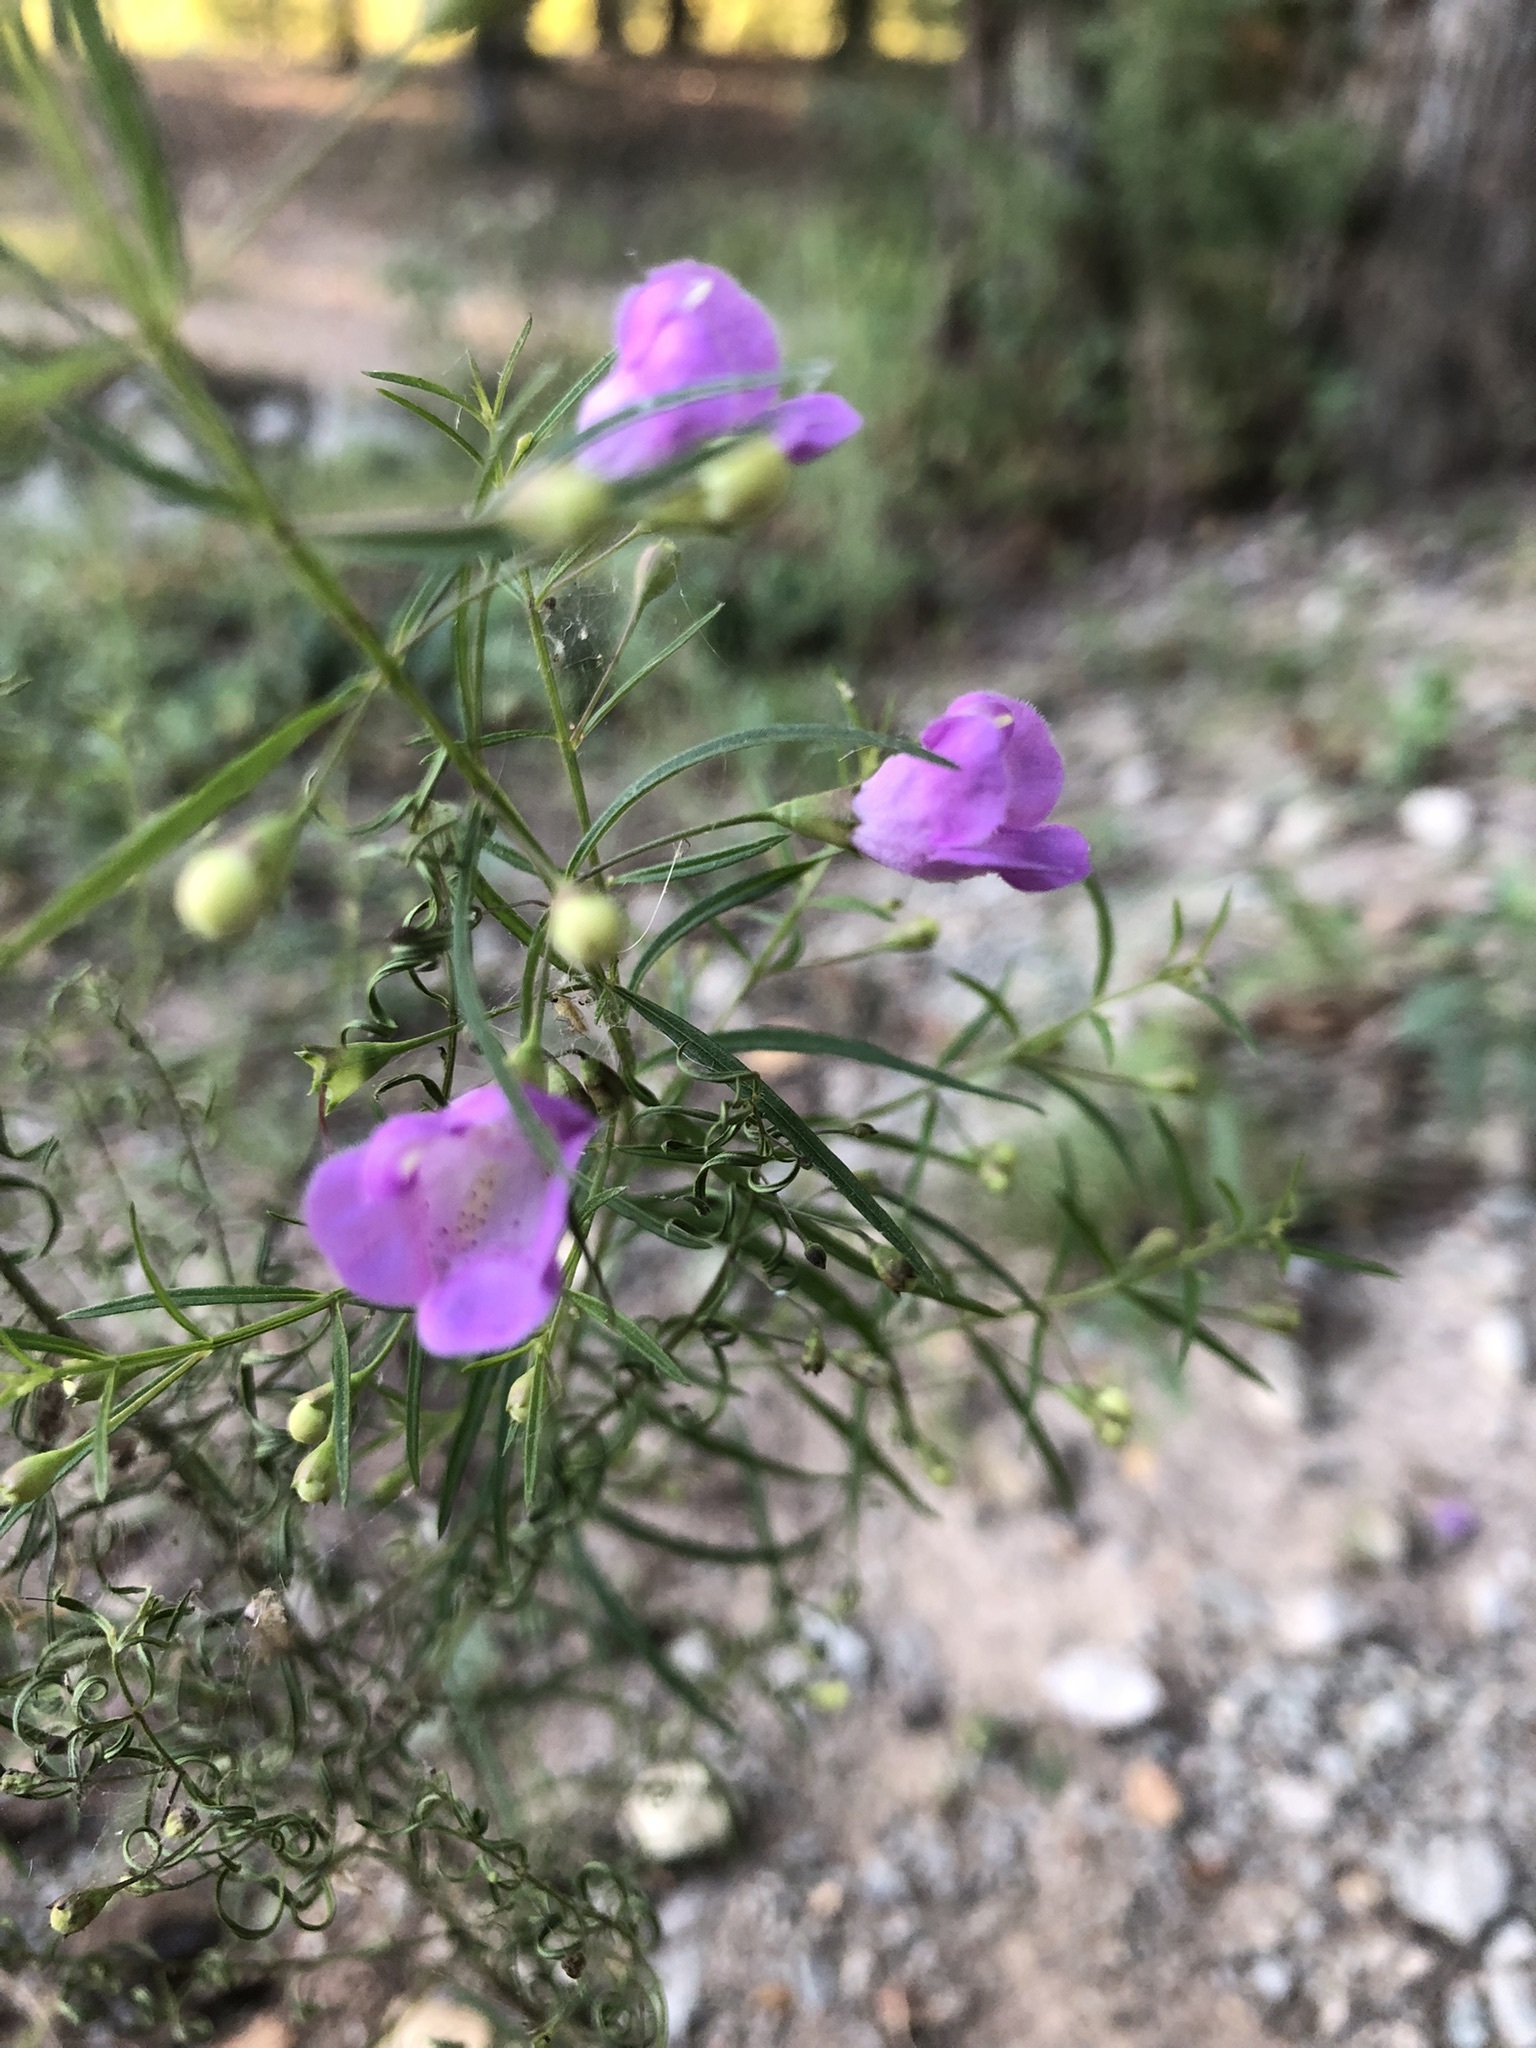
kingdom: Plantae
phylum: Tracheophyta
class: Magnoliopsida
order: Lamiales
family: Orobanchaceae
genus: Agalinis
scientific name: Agalinis tenuifolia
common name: Slender agalinis
